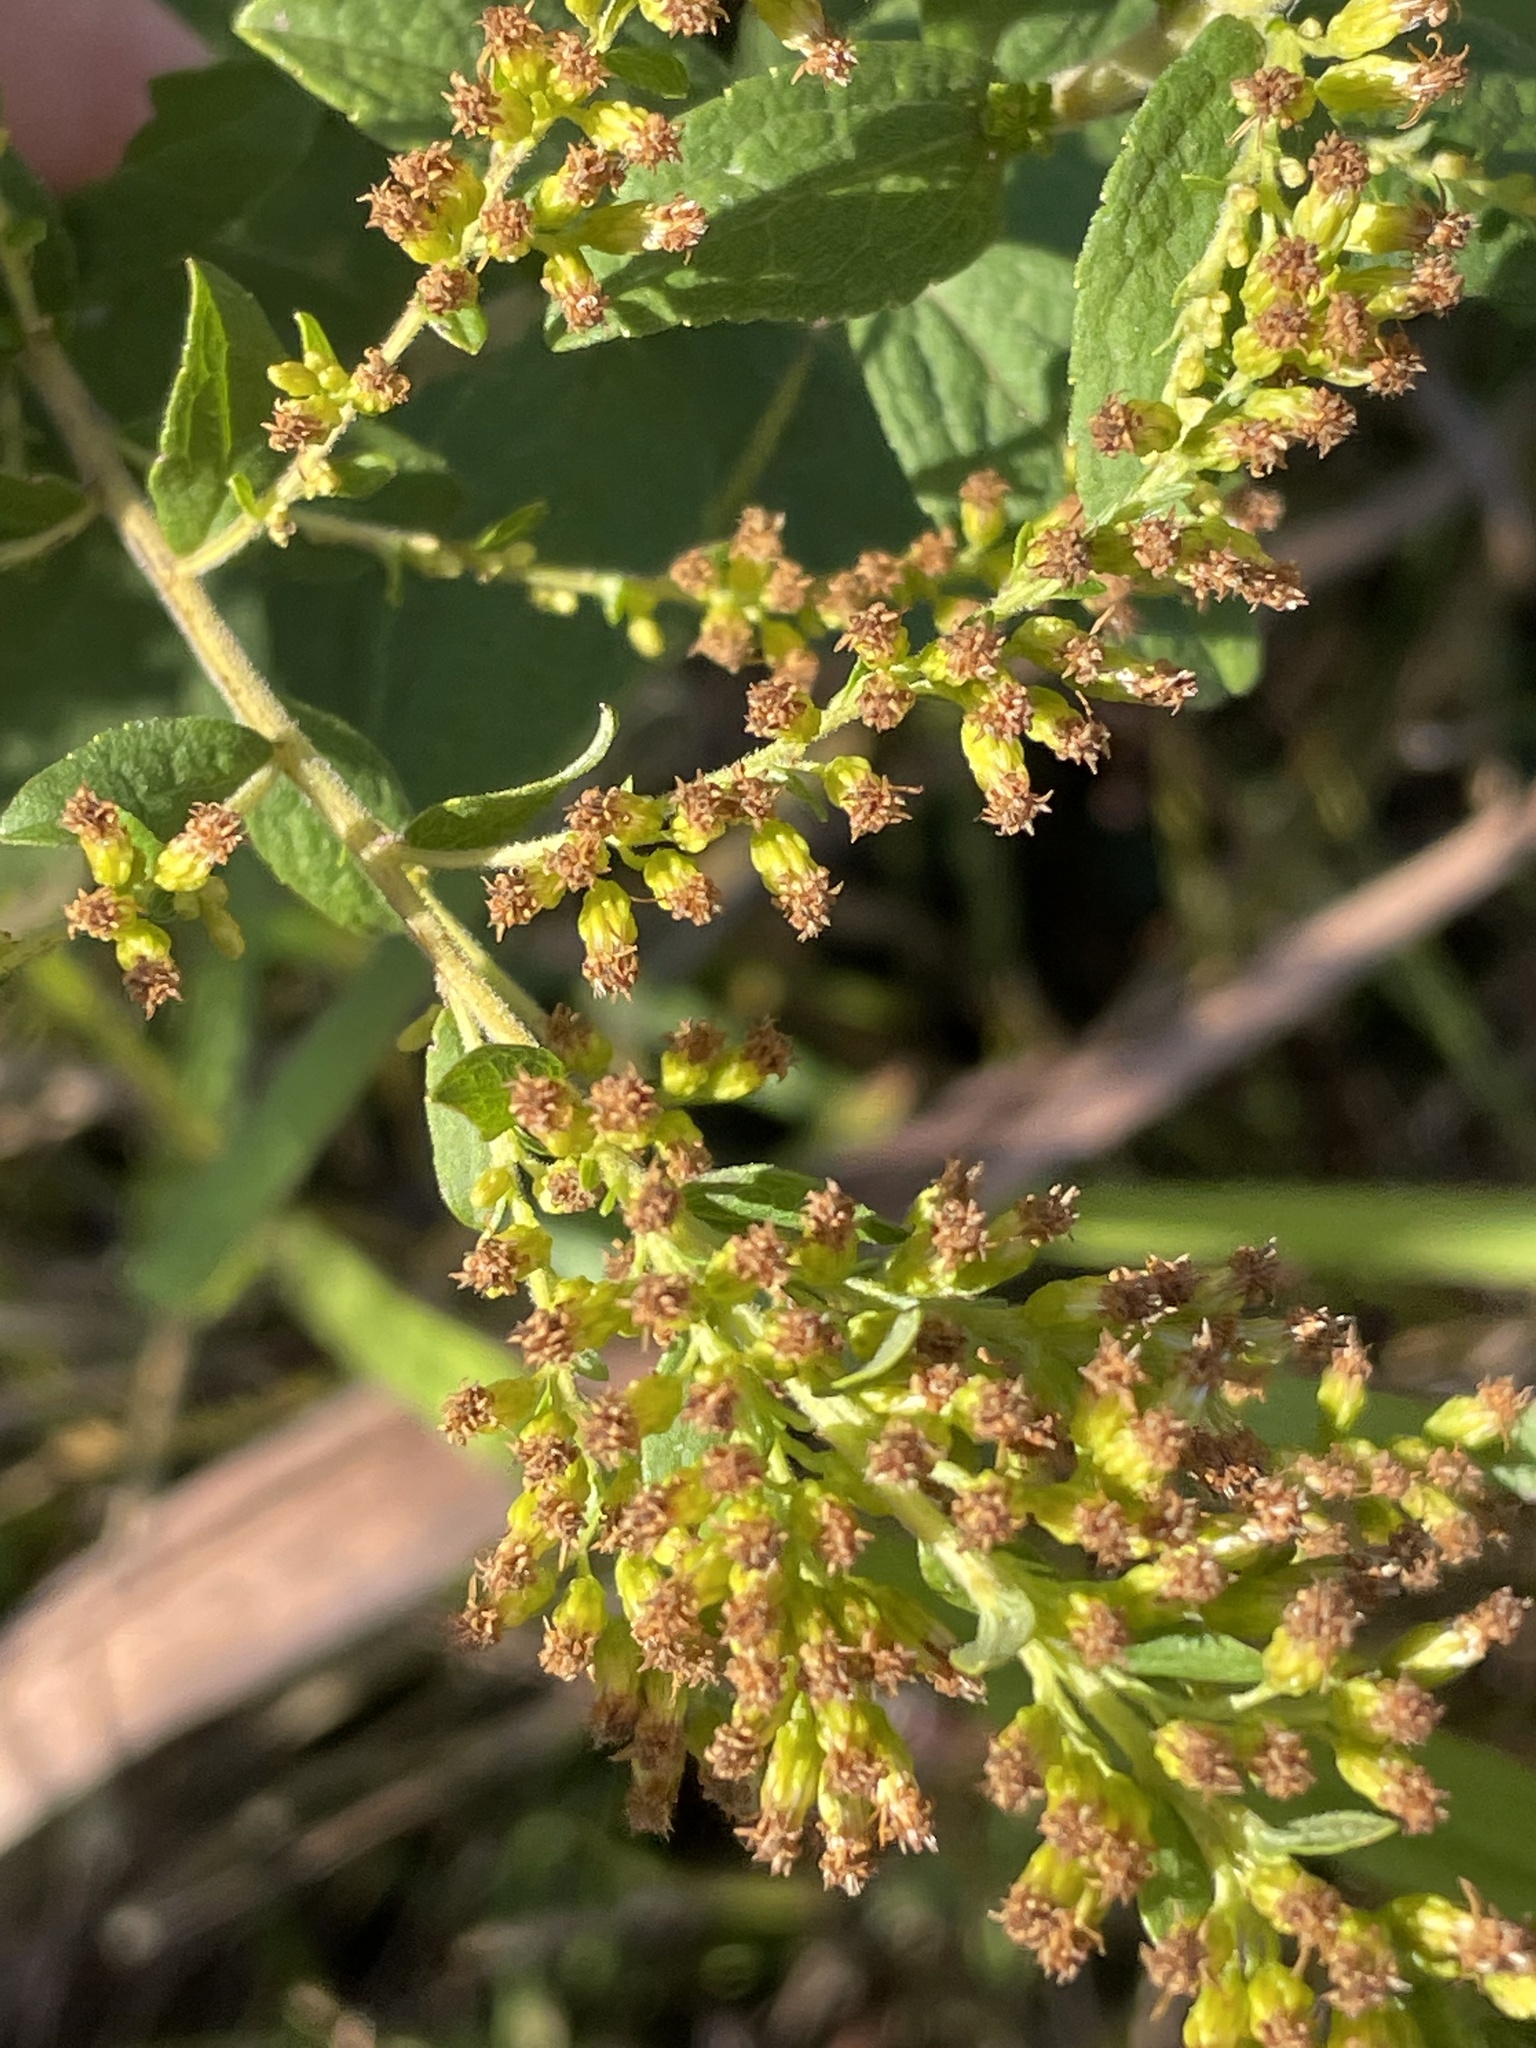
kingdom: Plantae
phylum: Tracheophyta
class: Magnoliopsida
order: Asterales
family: Asteraceae
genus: Solidago
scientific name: Solidago rugosa
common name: Rough-stemmed goldenrod
